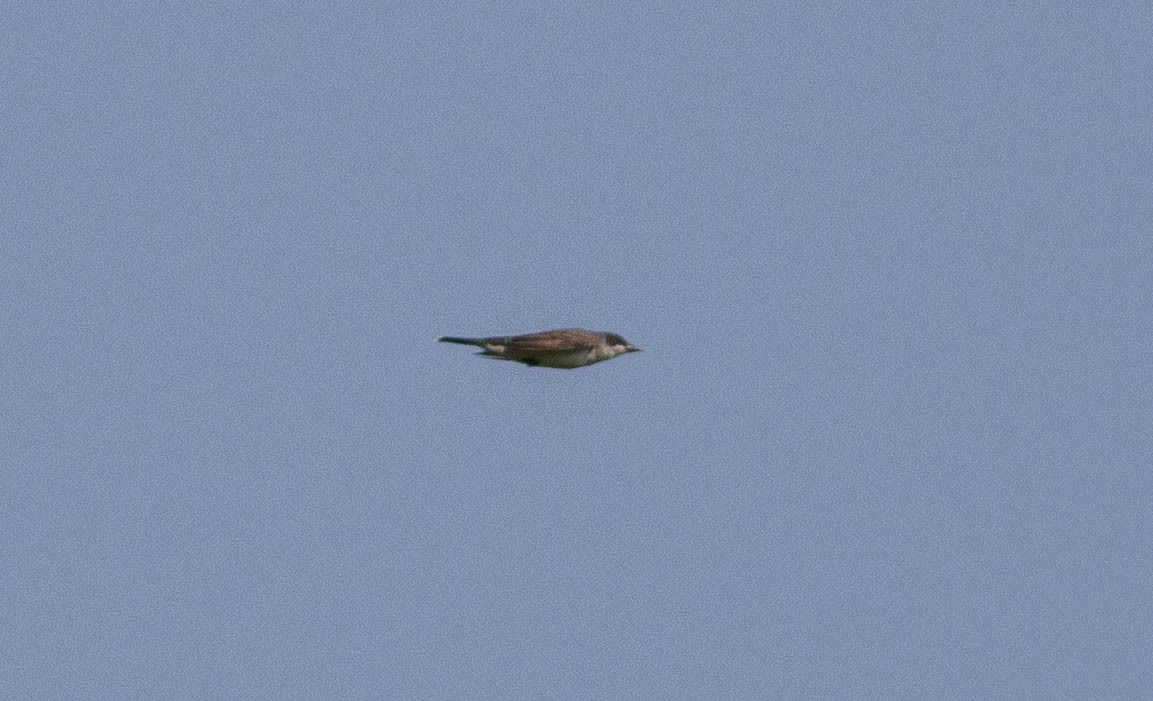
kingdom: Animalia
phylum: Chordata
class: Aves
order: Passeriformes
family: Tyrannidae
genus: Tyrannus
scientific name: Tyrannus tyrannus
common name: Eastern kingbird
